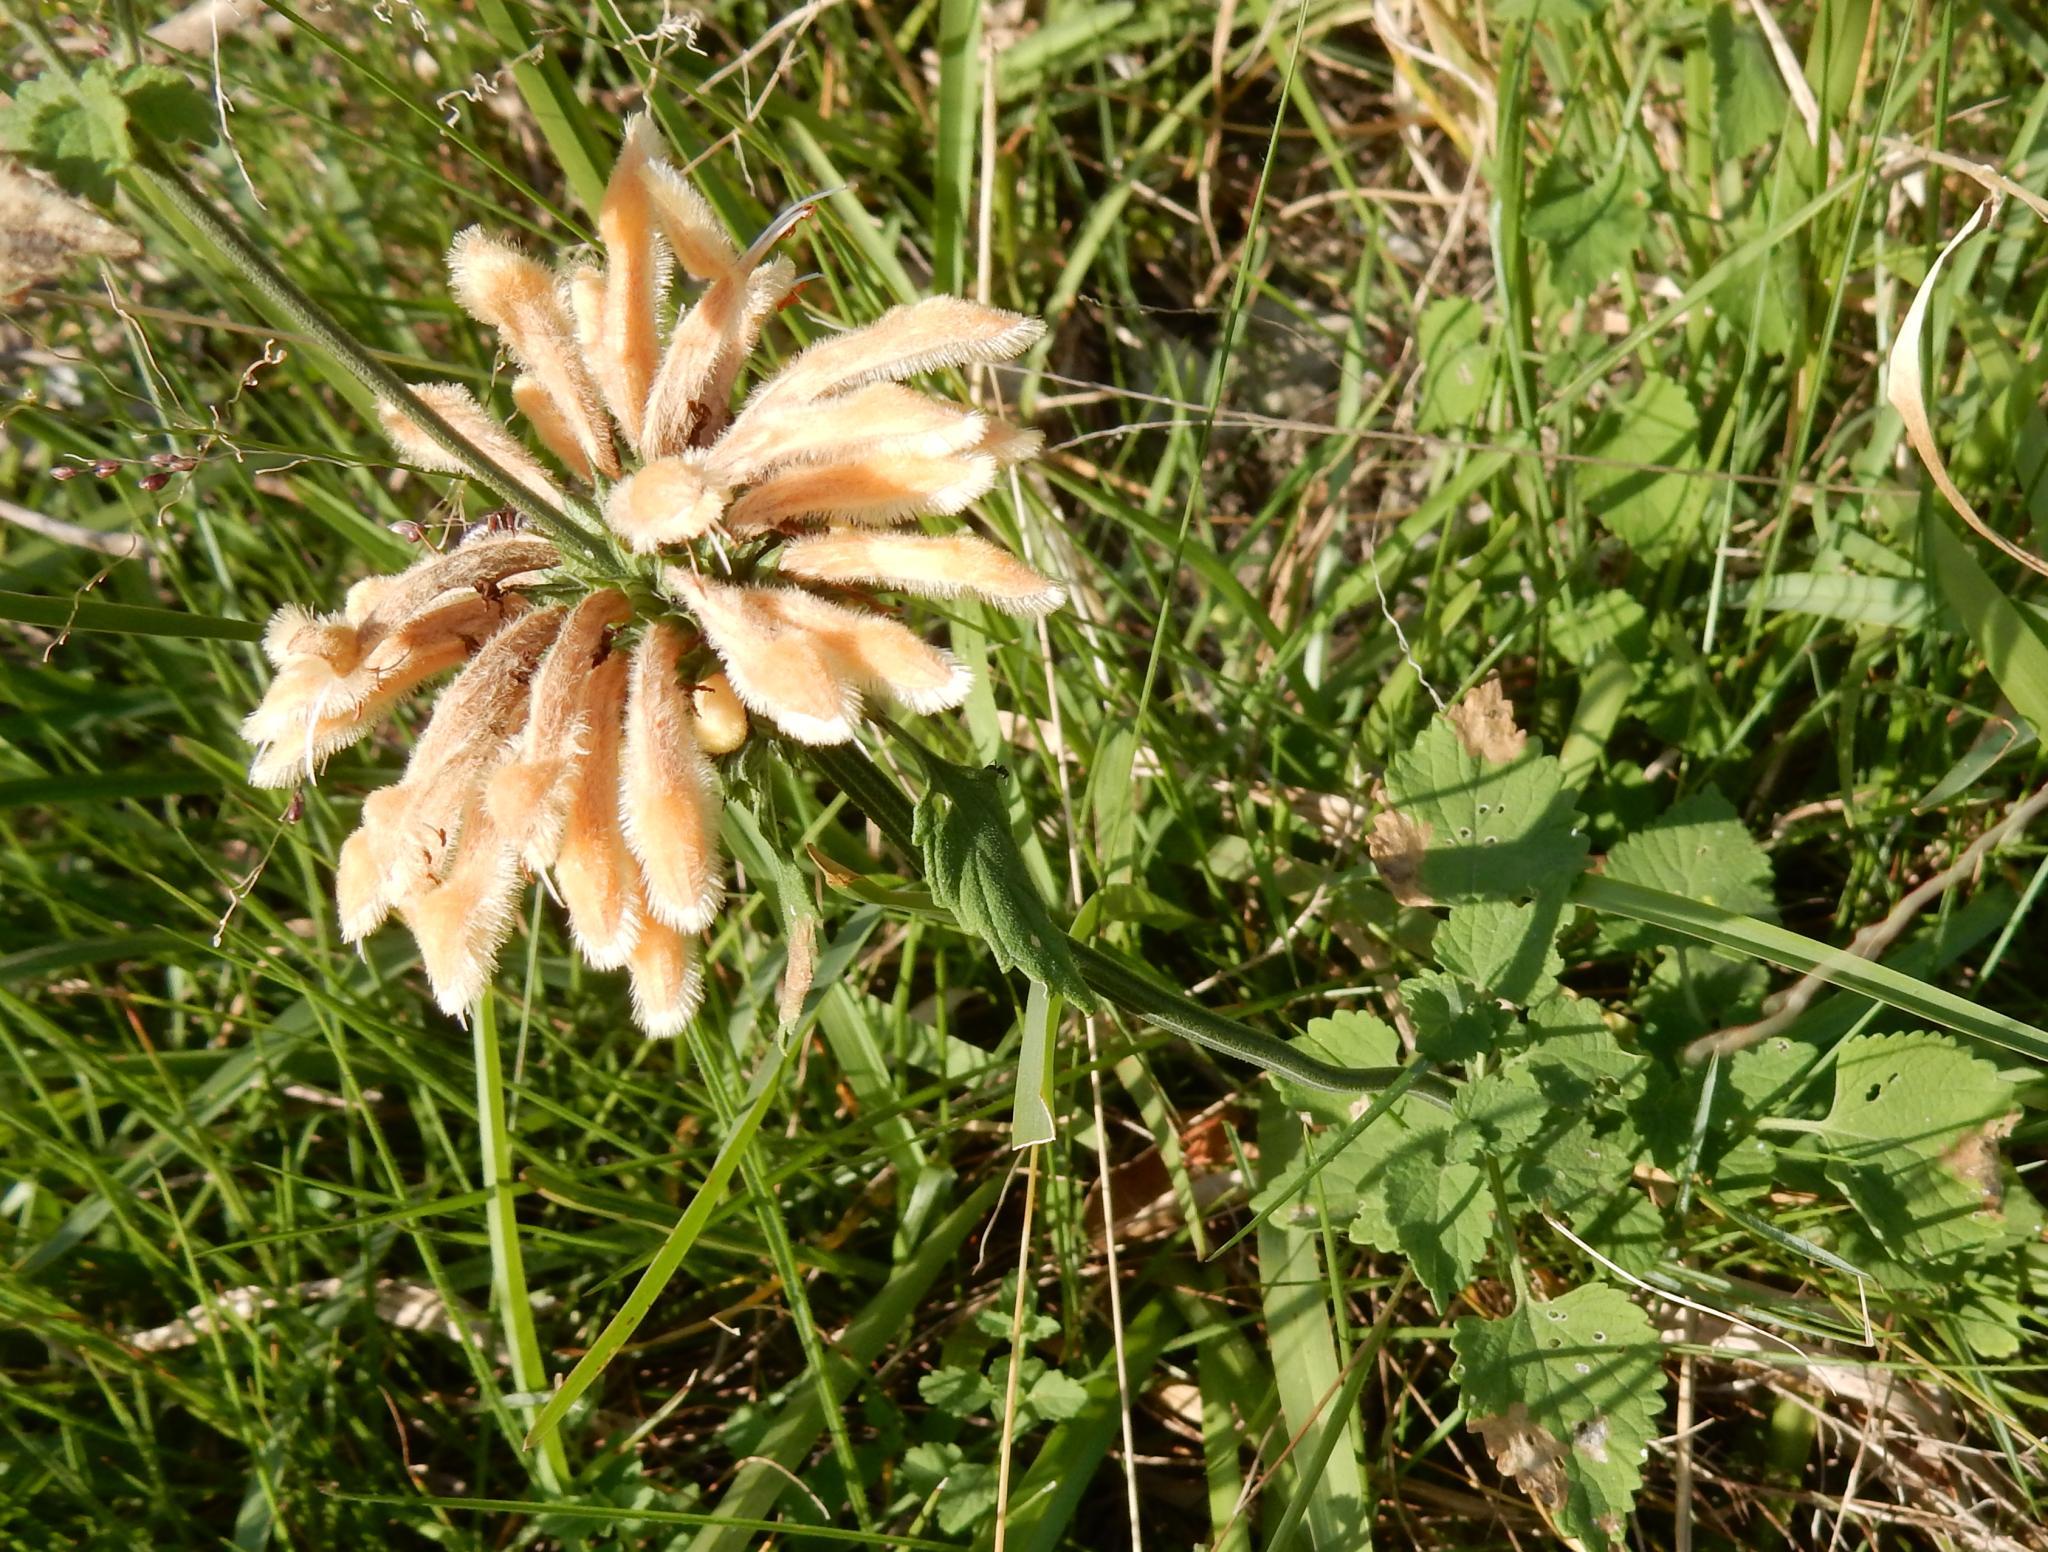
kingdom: Plantae
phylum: Tracheophyta
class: Magnoliopsida
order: Lamiales
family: Lamiaceae
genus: Leonotis
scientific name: Leonotis ocymifolia
